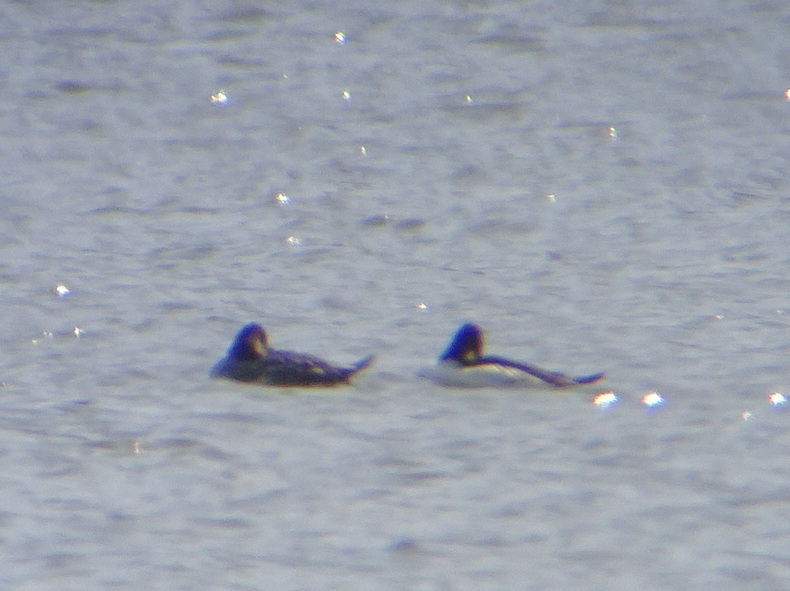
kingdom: Animalia
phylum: Chordata
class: Aves
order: Anseriformes
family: Anatidae
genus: Bucephala
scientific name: Bucephala clangula
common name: Common goldeneye
